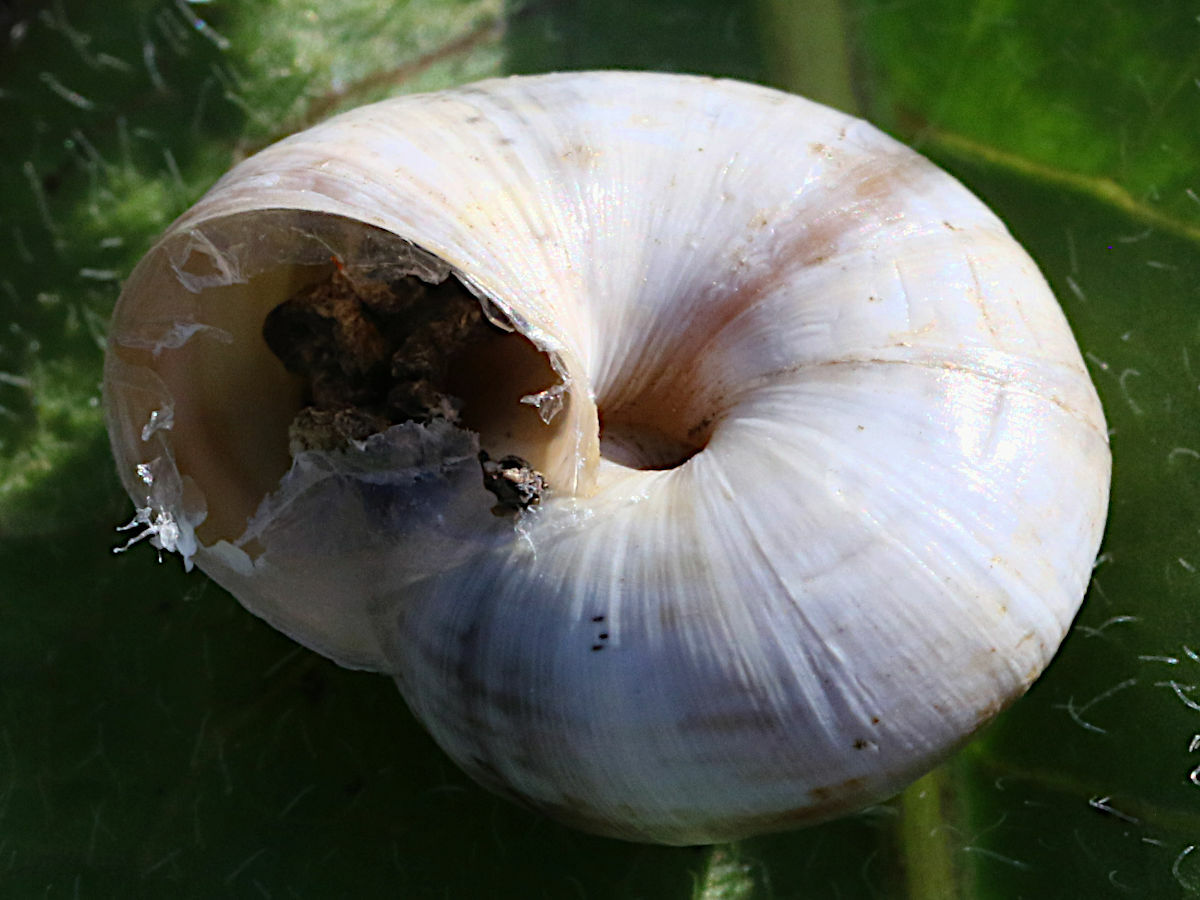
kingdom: Animalia
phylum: Mollusca
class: Gastropoda
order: Stylommatophora
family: Geomitridae
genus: Xeropicta
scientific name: Xeropicta krynickii
